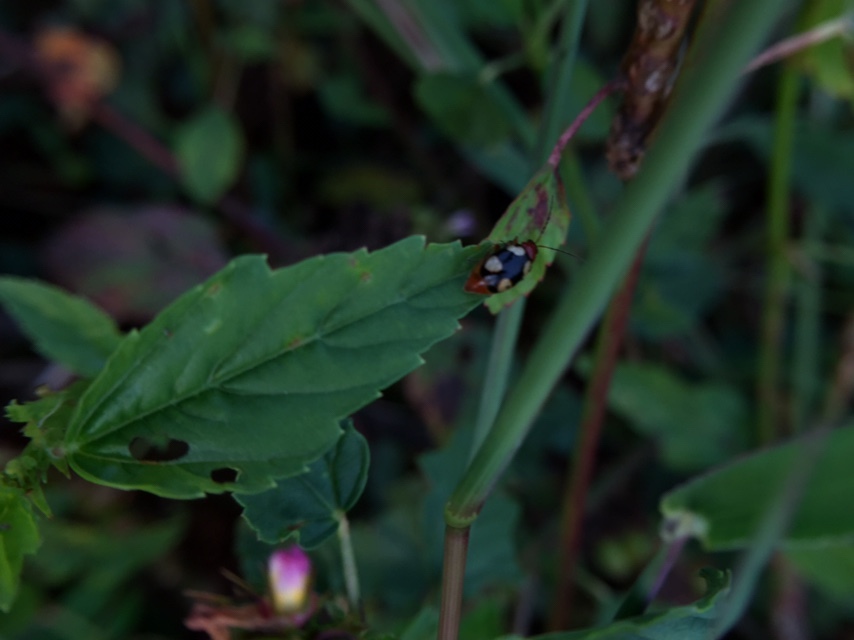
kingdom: Animalia
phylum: Arthropoda
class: Insecta
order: Coleoptera
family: Chrysomelidae
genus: Monolepta
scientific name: Monolepta signata
